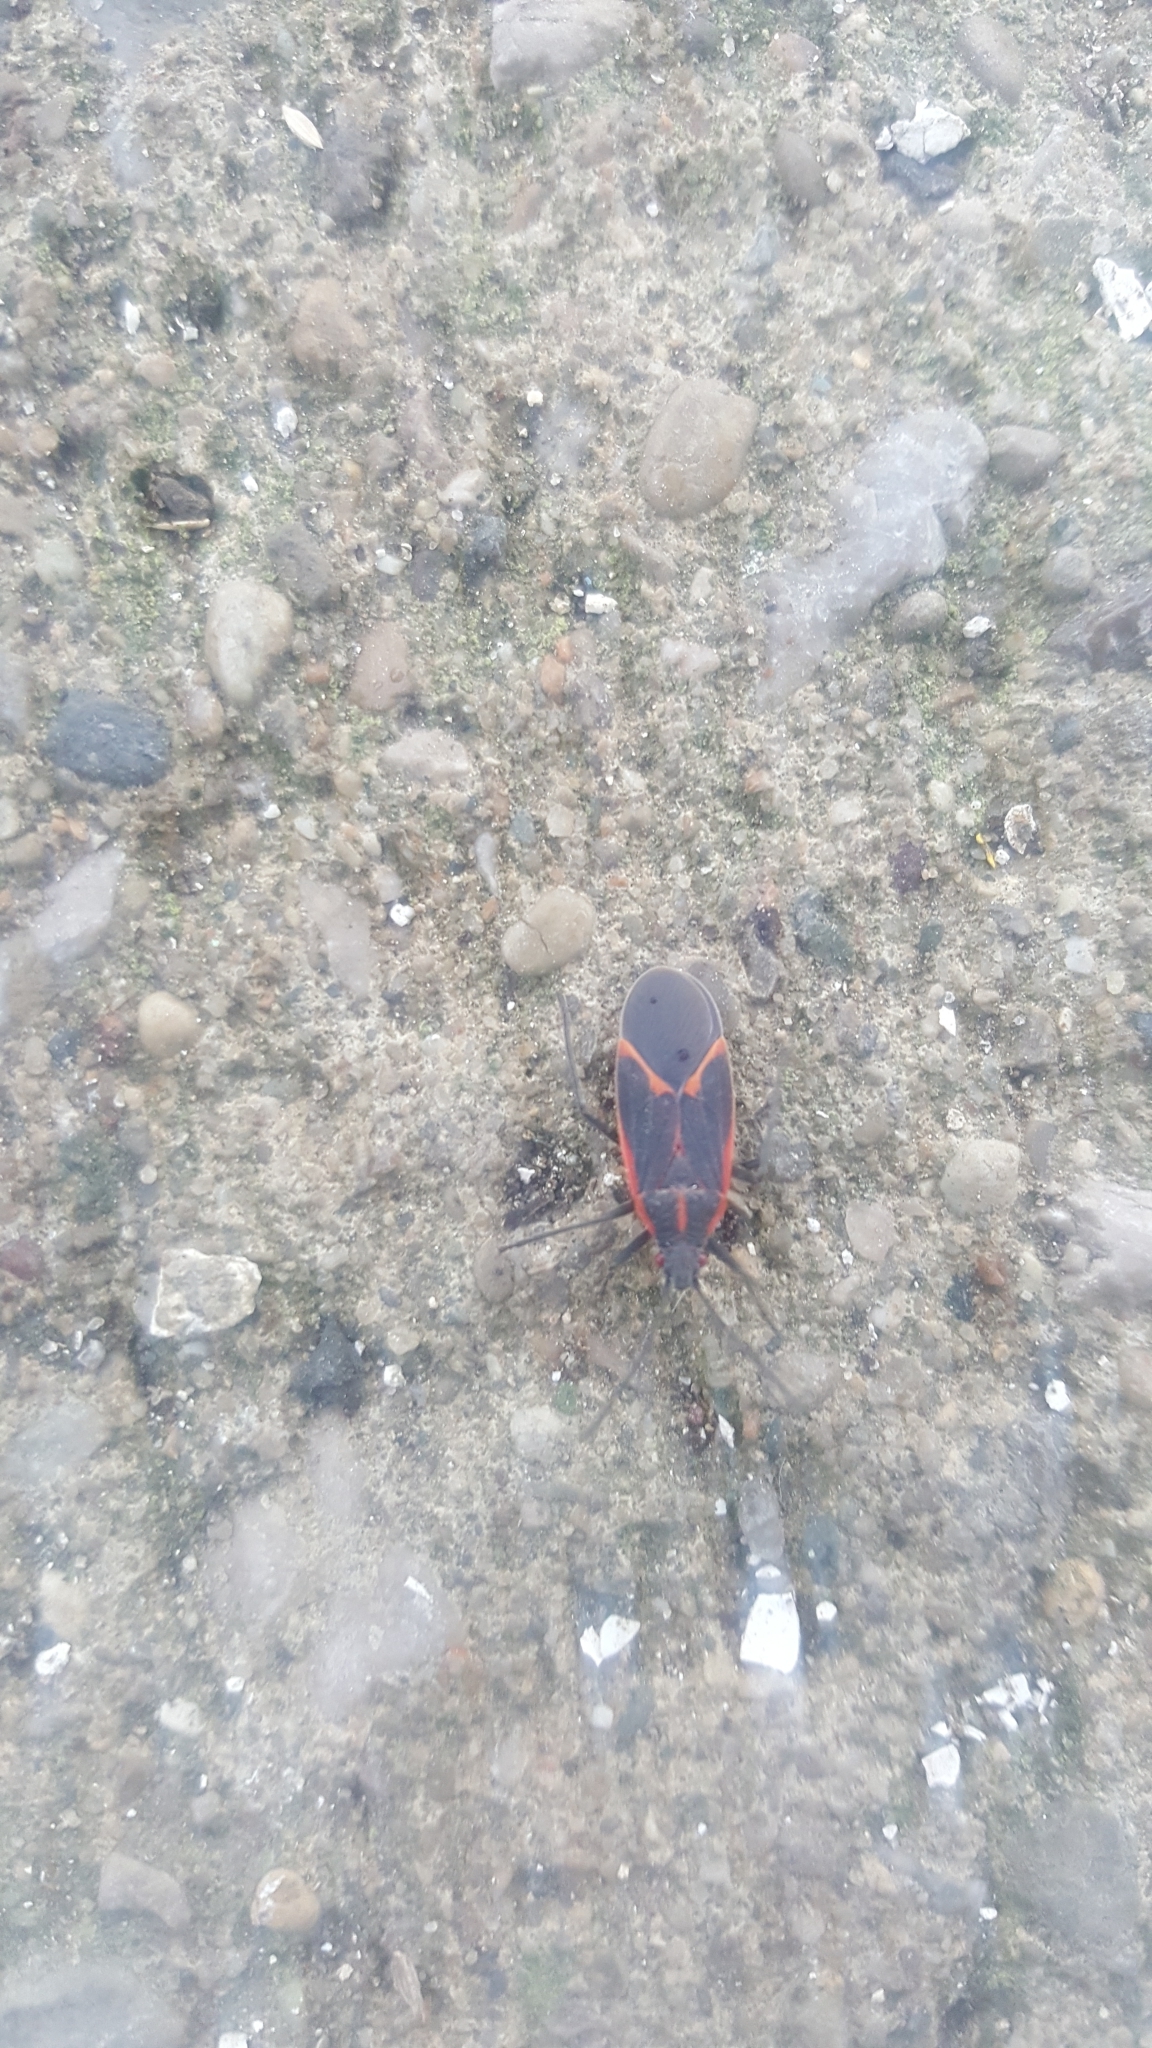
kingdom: Animalia
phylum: Arthropoda
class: Insecta
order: Hemiptera
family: Rhopalidae
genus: Boisea
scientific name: Boisea trivittata
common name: Boxelder bug
